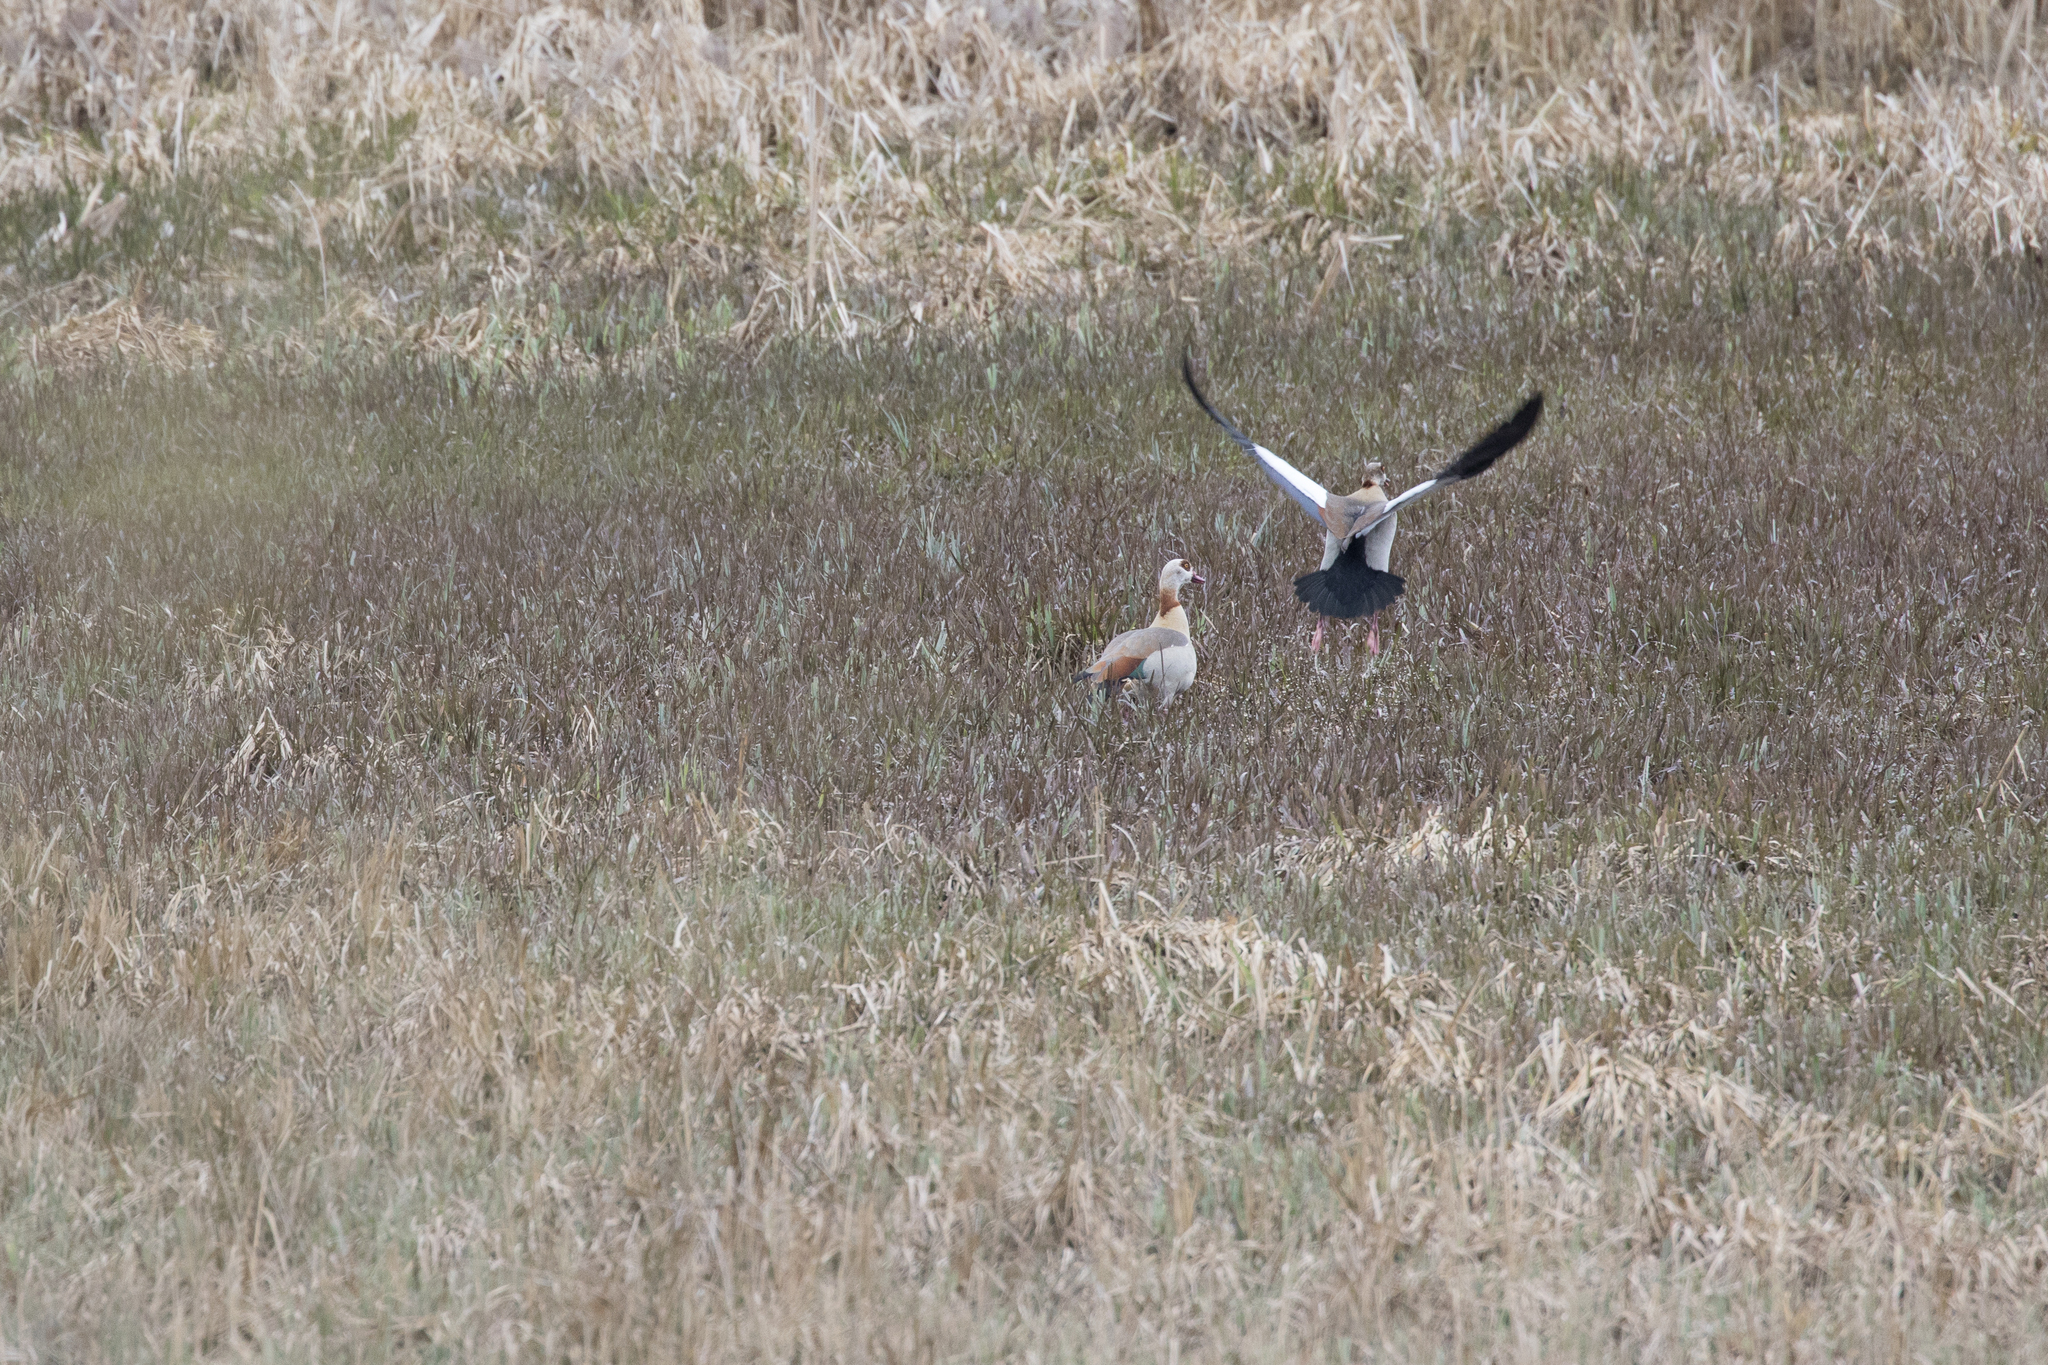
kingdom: Animalia
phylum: Chordata
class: Aves
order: Anseriformes
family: Anatidae
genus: Alopochen
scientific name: Alopochen aegyptiaca
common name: Egyptian goose
